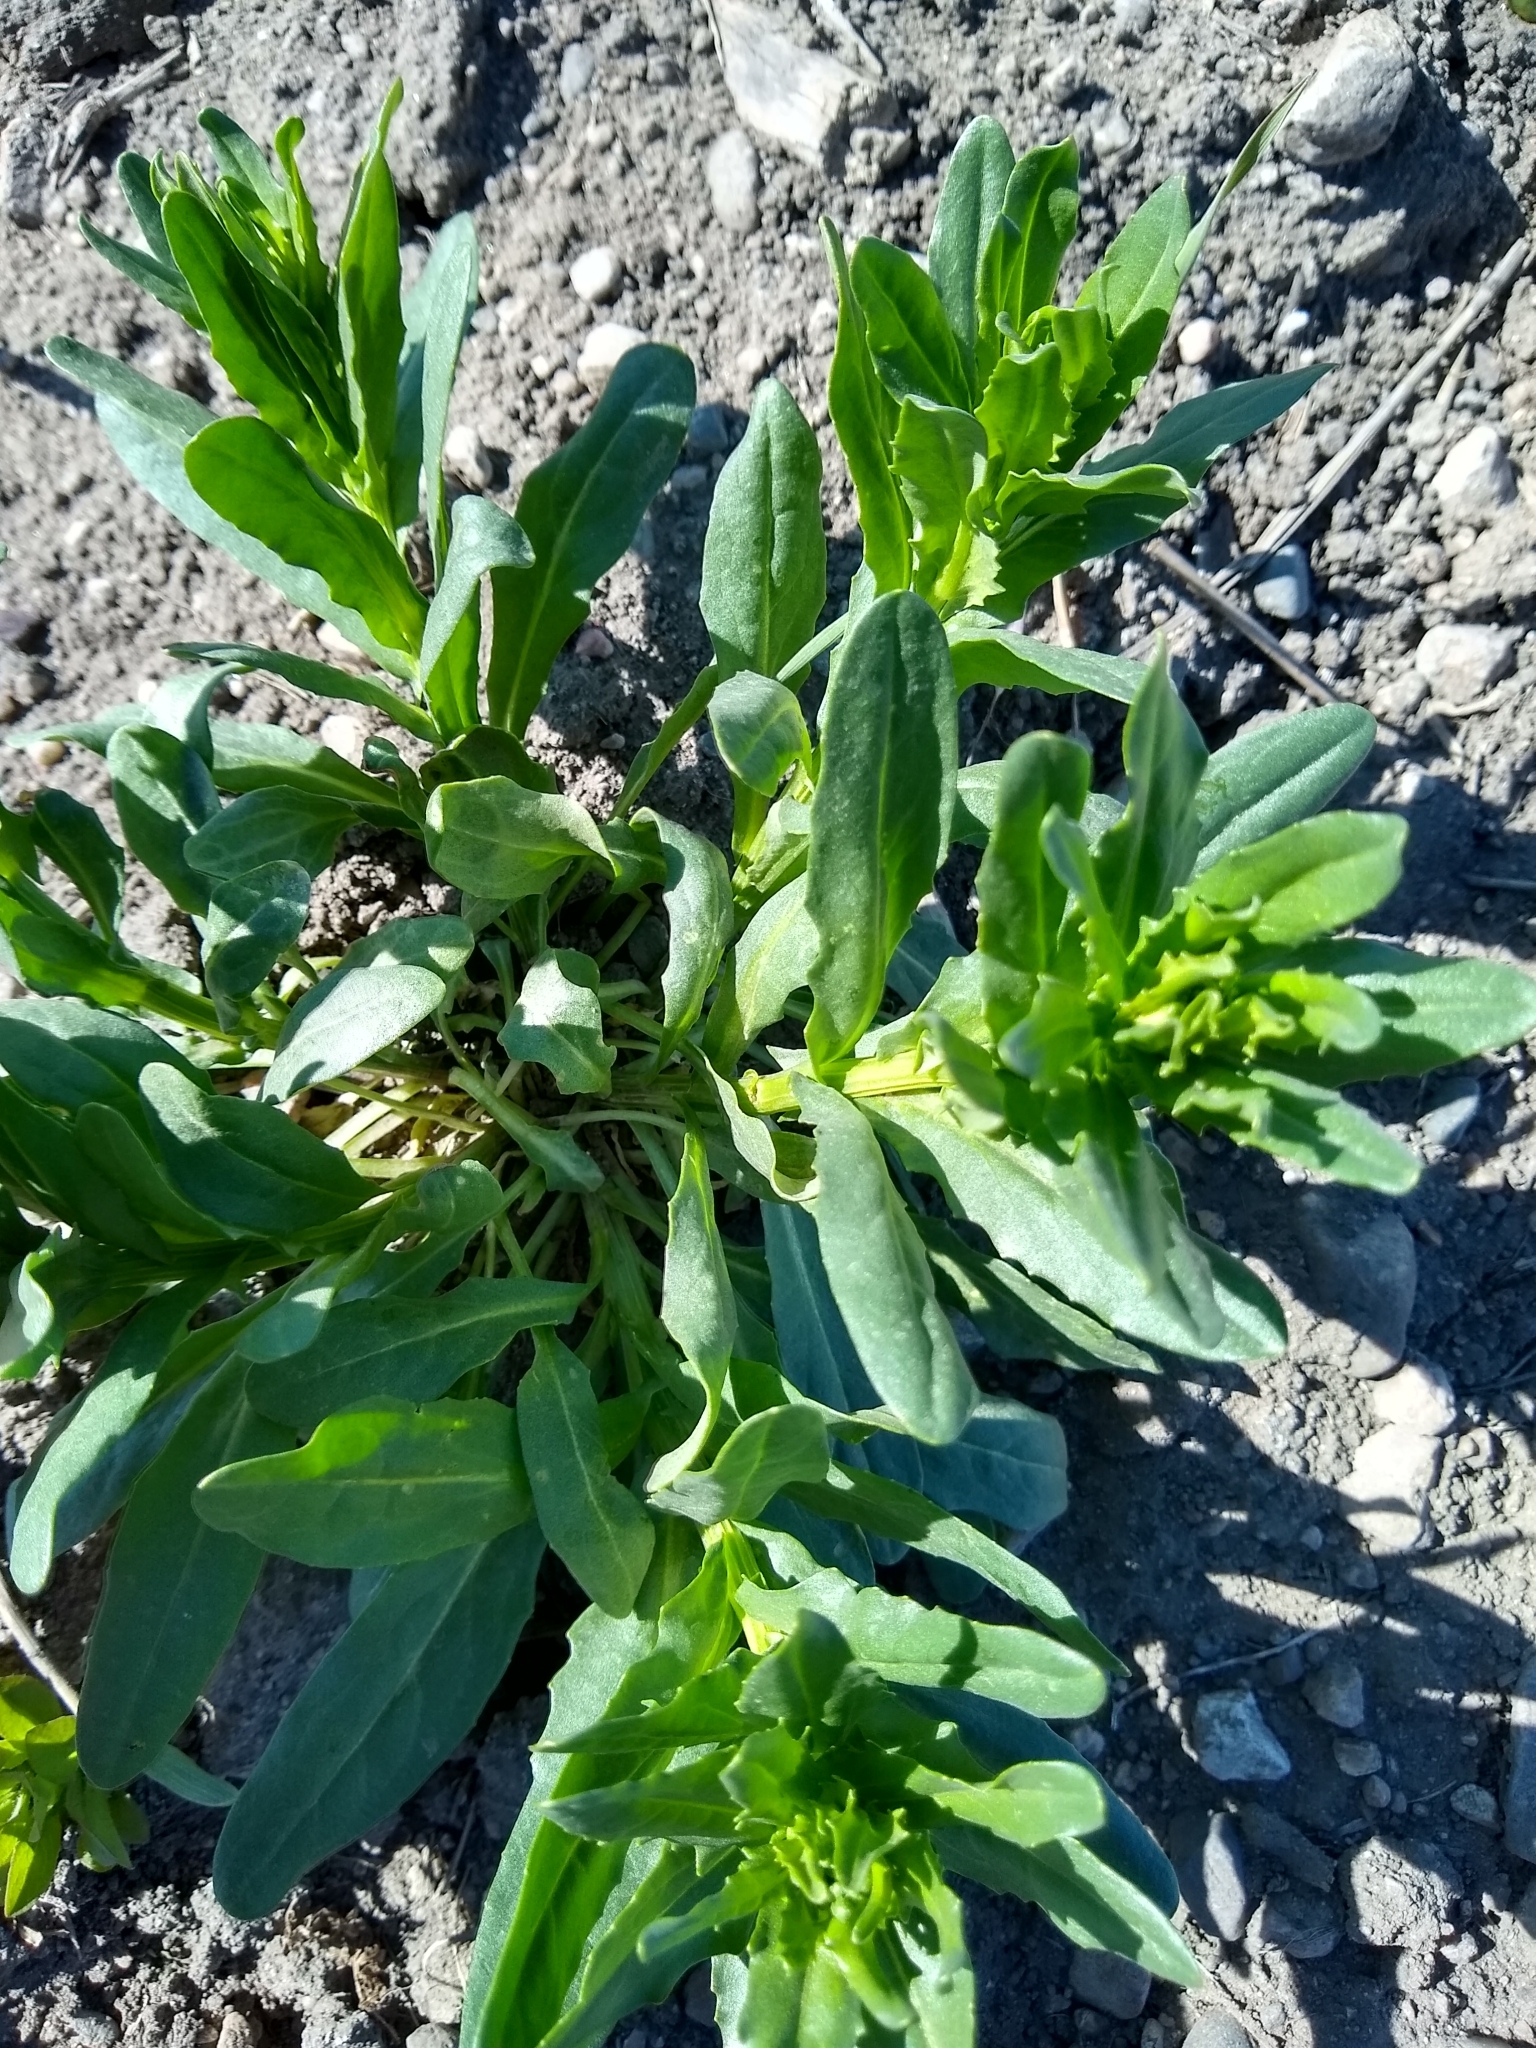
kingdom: Plantae
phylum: Tracheophyta
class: Magnoliopsida
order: Brassicales
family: Brassicaceae
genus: Thlaspi
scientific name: Thlaspi arvense
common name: Field pennycress
